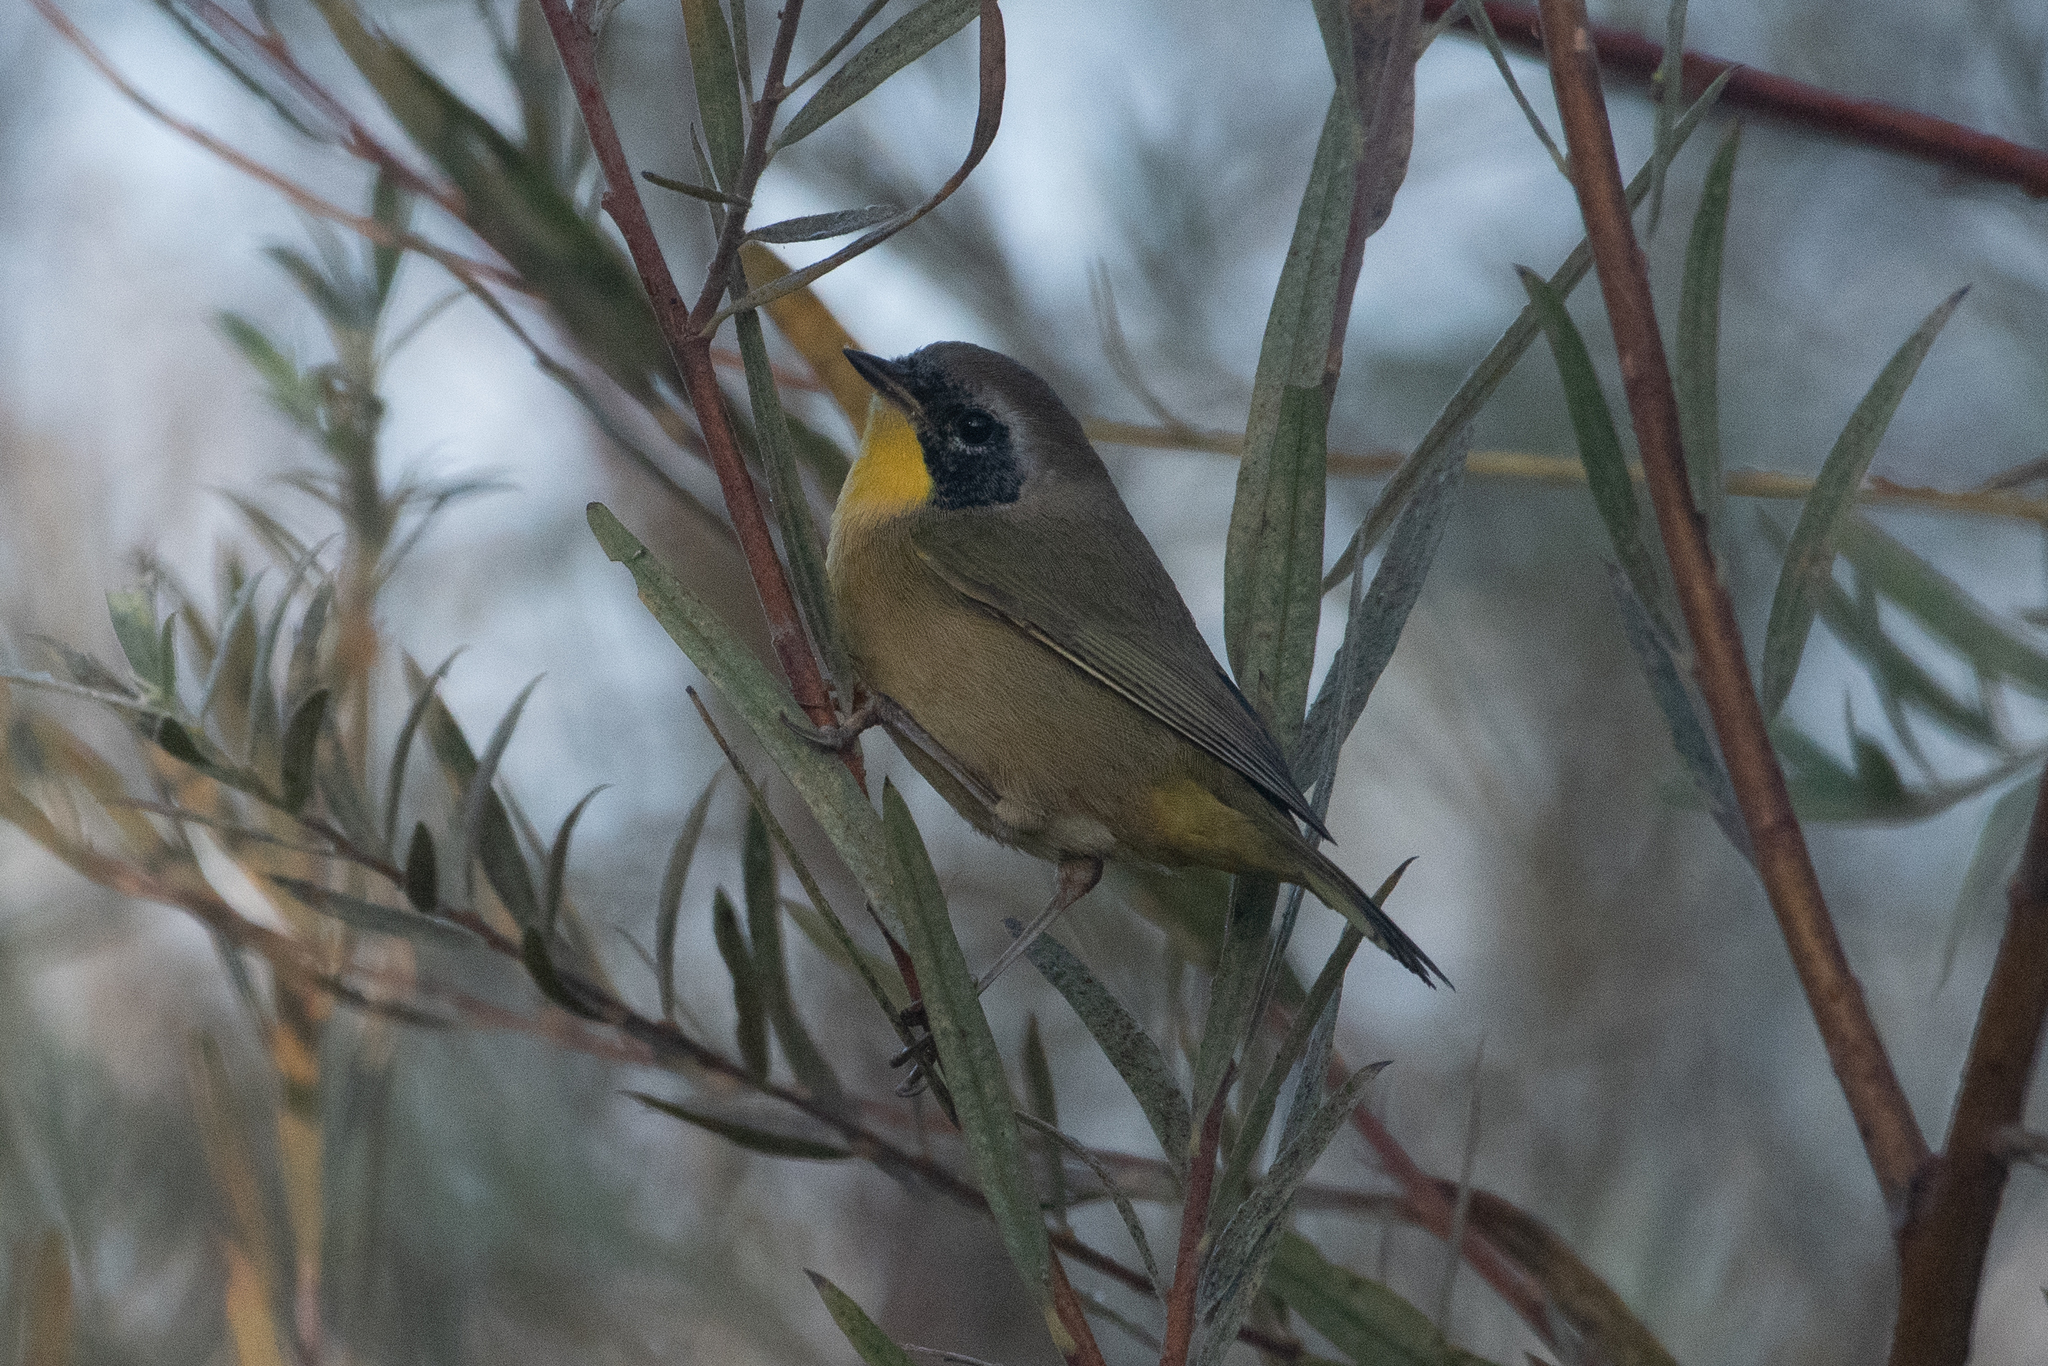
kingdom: Animalia
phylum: Chordata
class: Aves
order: Passeriformes
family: Parulidae
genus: Geothlypis
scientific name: Geothlypis trichas
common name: Common yellowthroat
